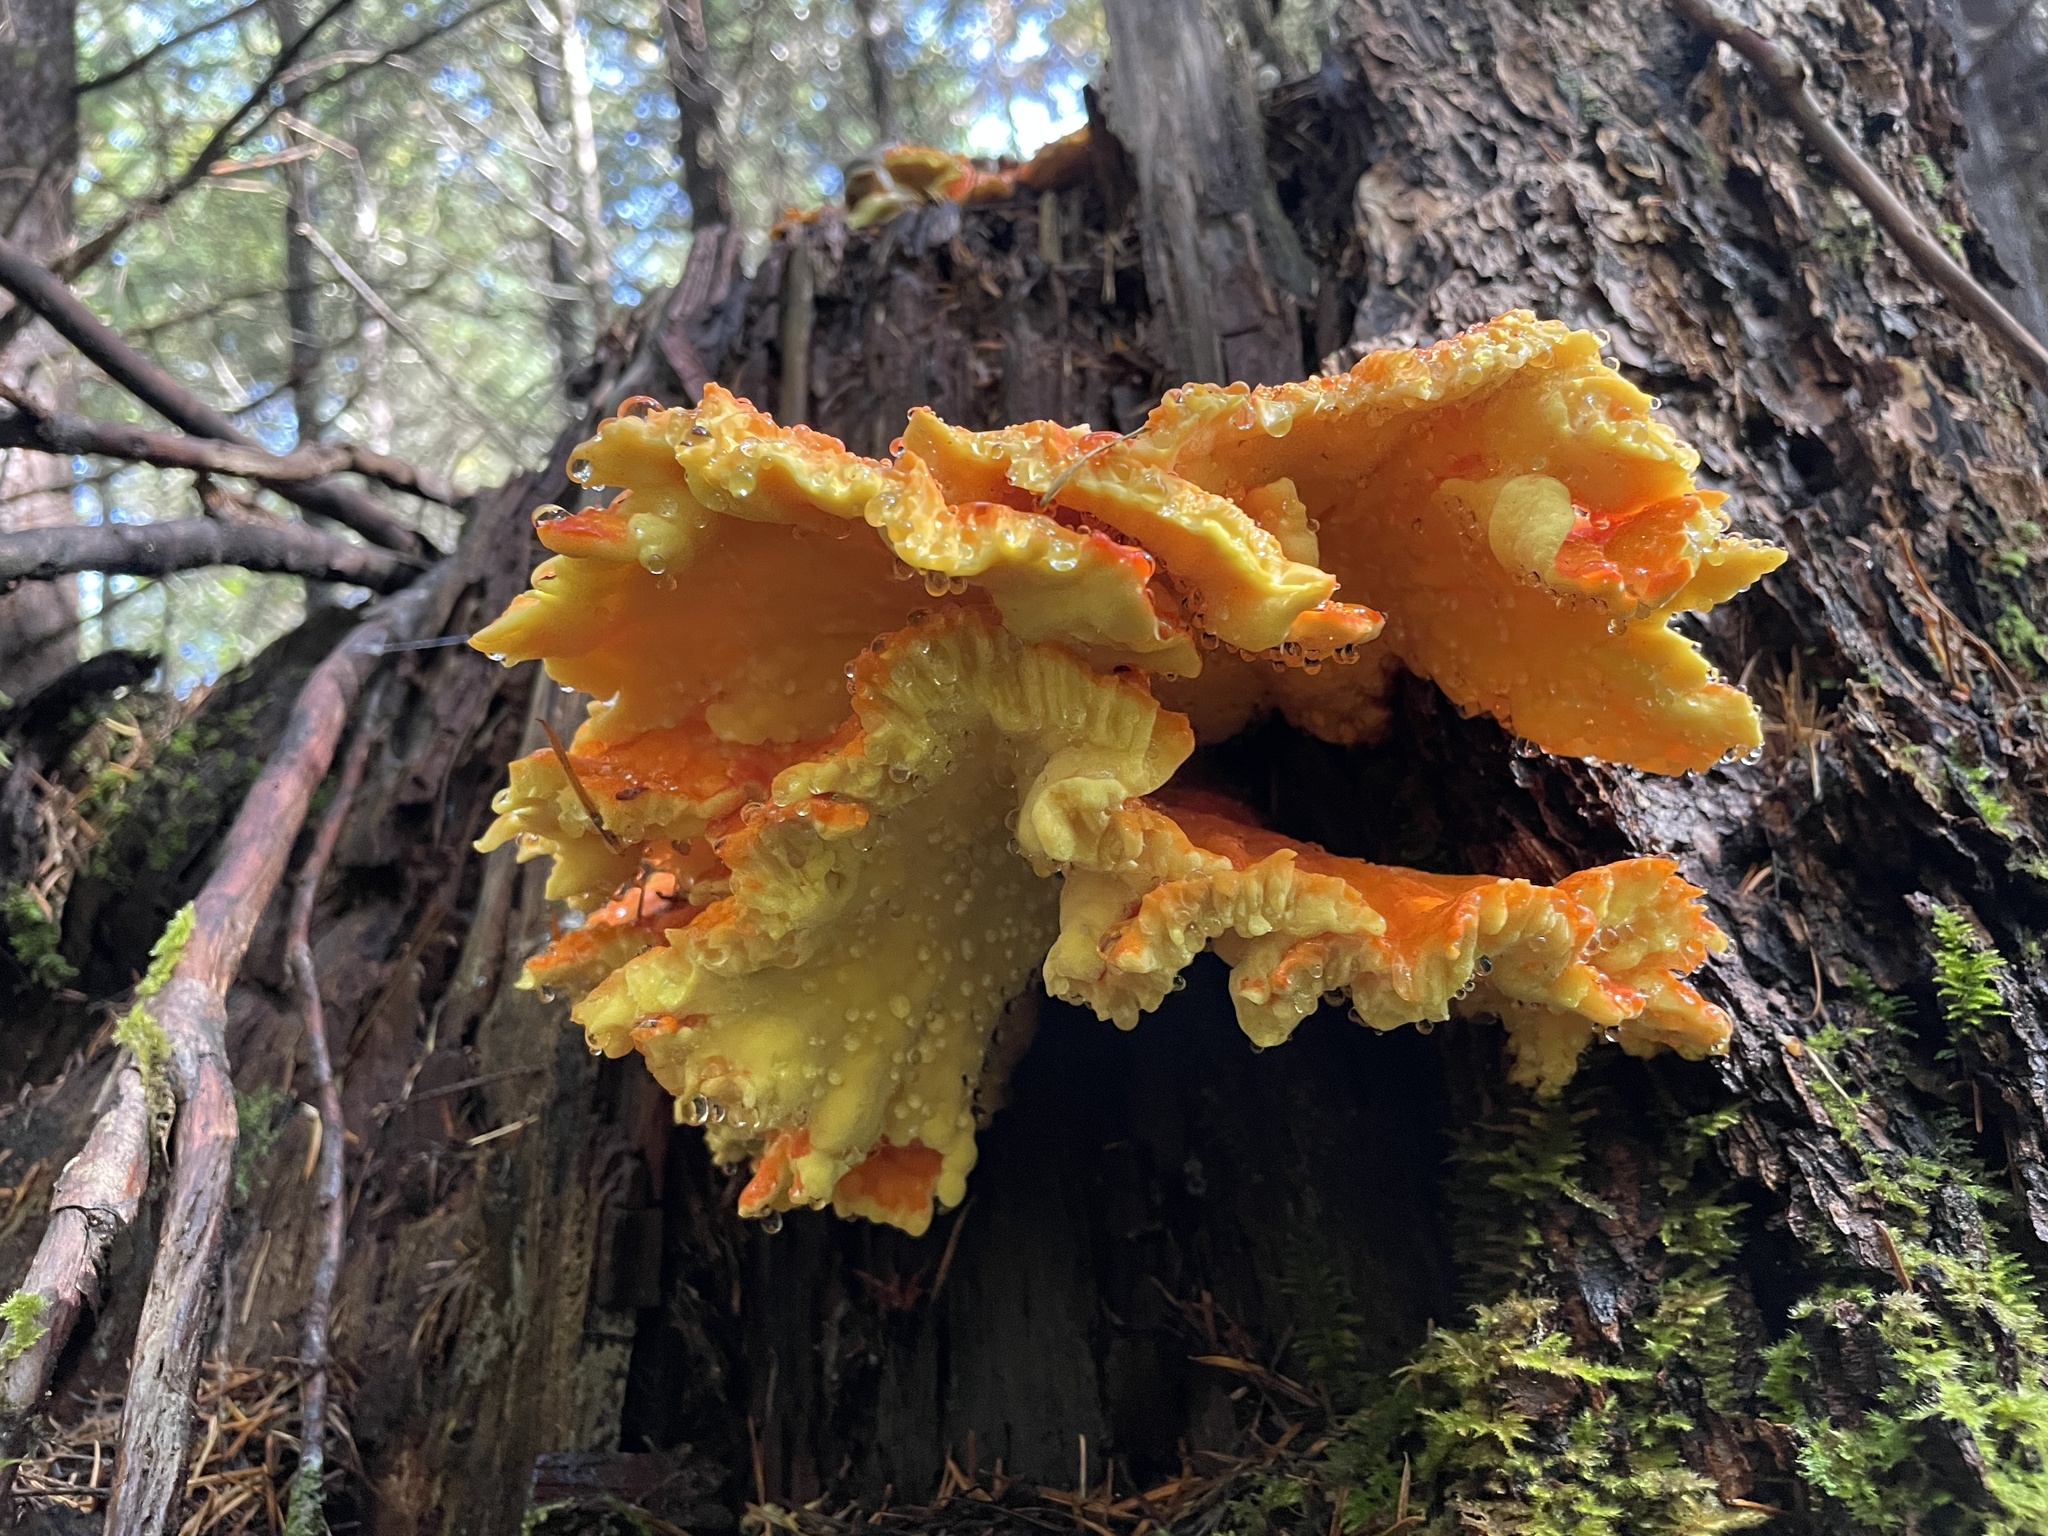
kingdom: Fungi
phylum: Basidiomycota
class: Agaricomycetes
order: Polyporales
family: Laetiporaceae
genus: Laetiporus
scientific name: Laetiporus conifericola
